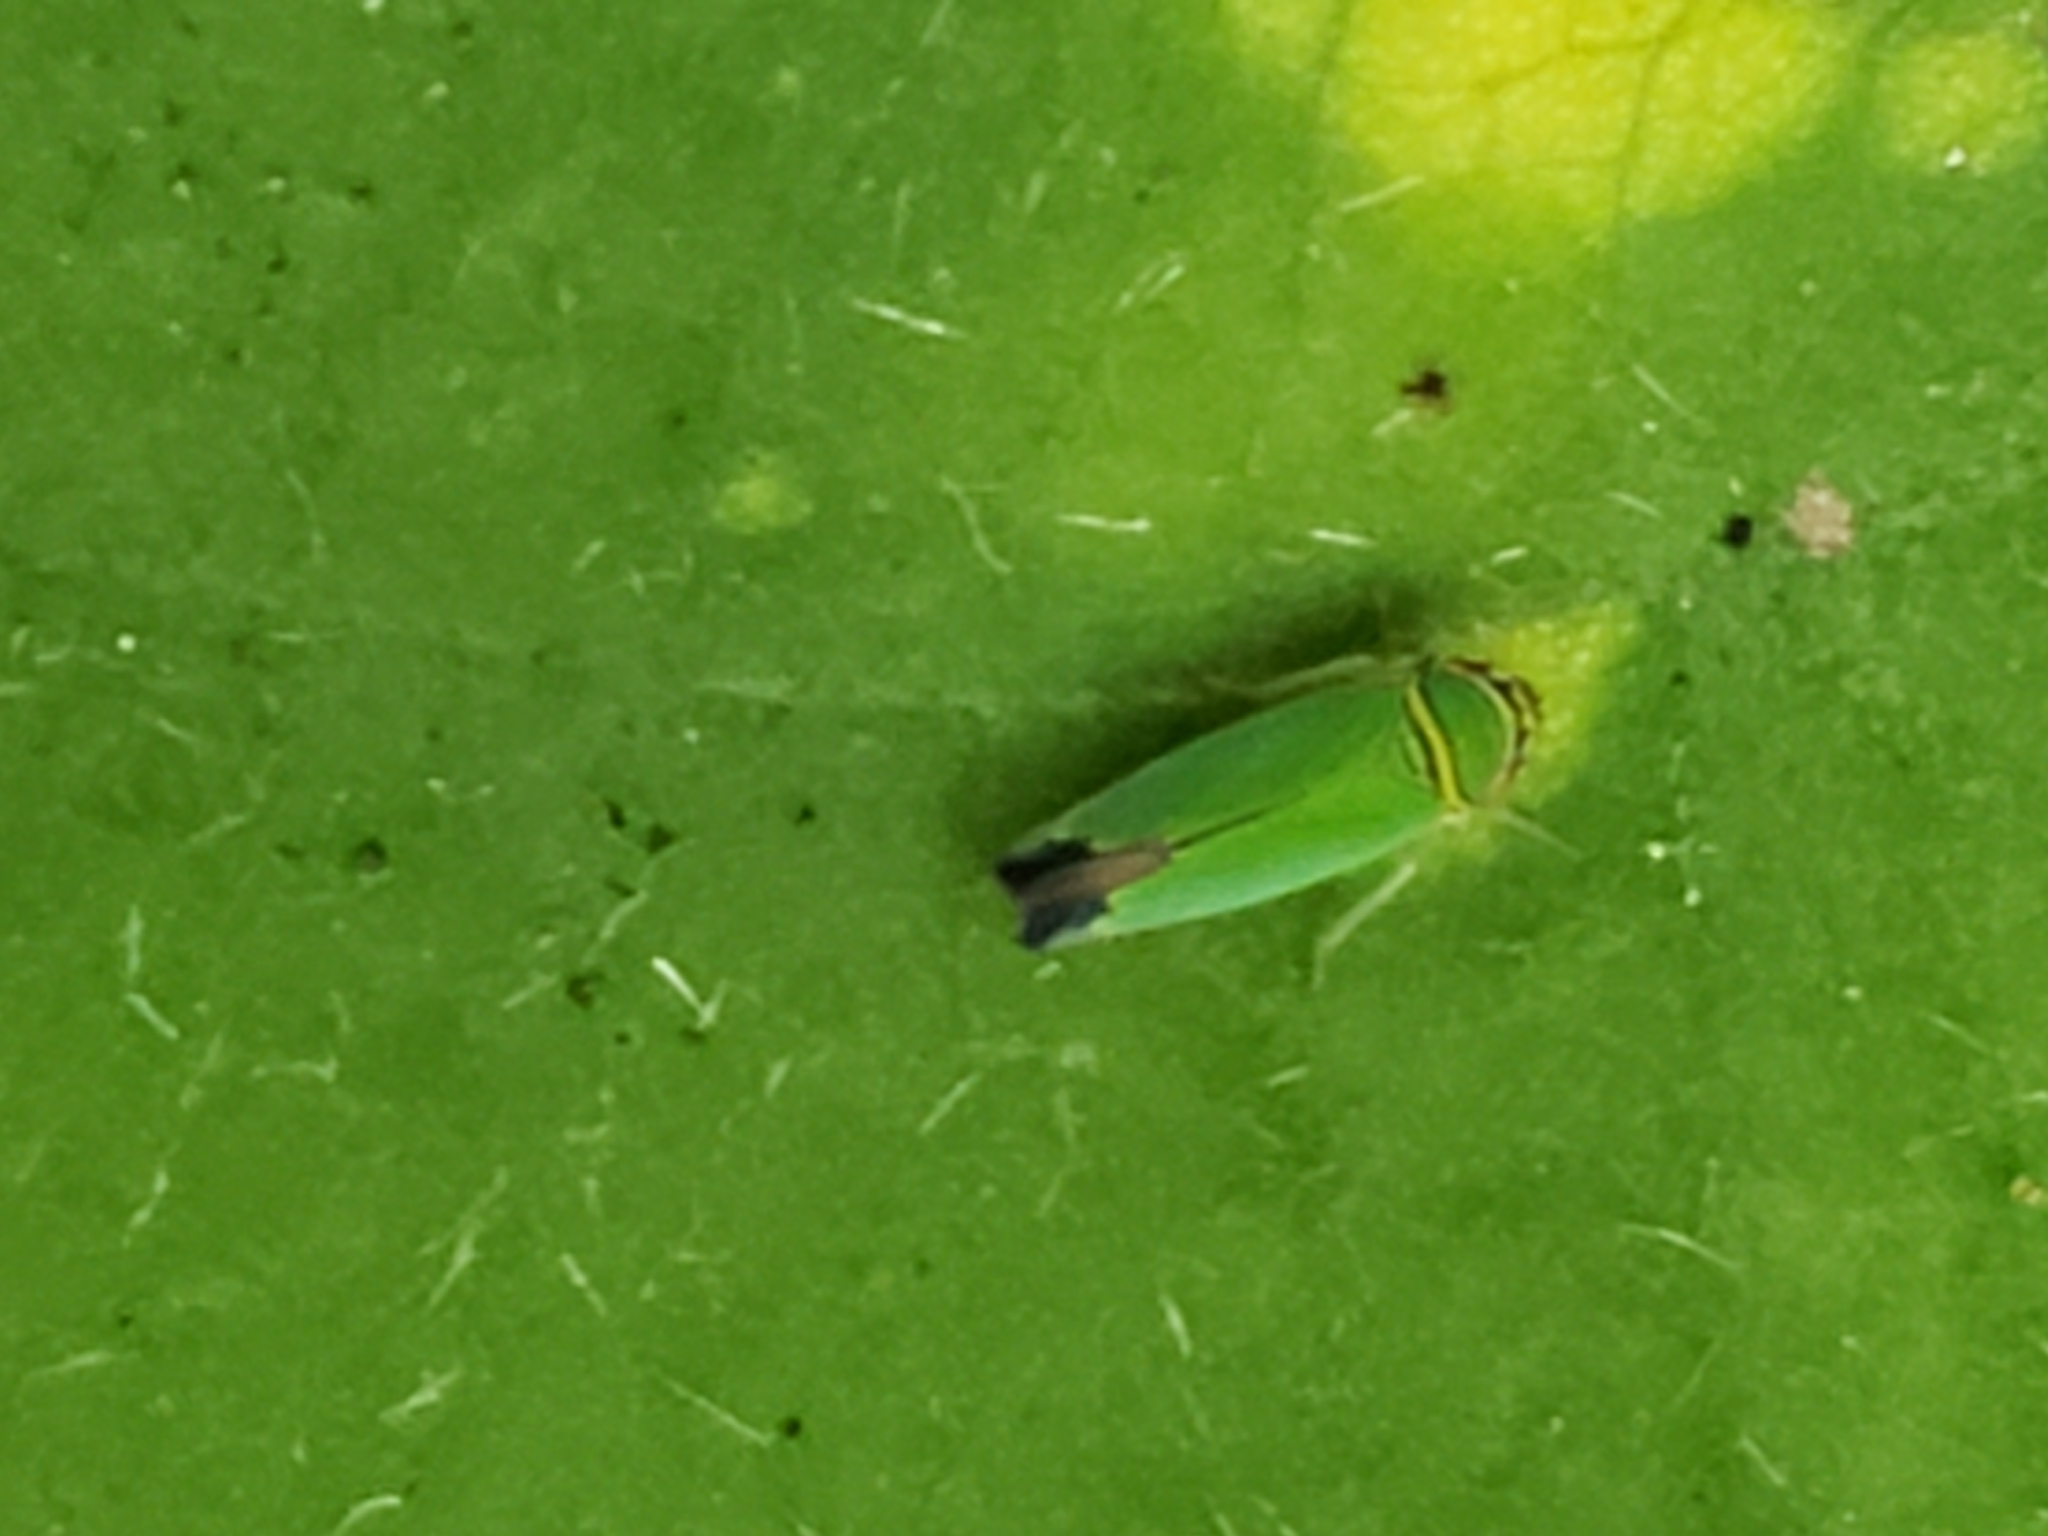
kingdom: Animalia
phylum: Arthropoda
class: Insecta
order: Hemiptera
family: Cicadellidae
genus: Tylozygus
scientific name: Tylozygus geometricus
